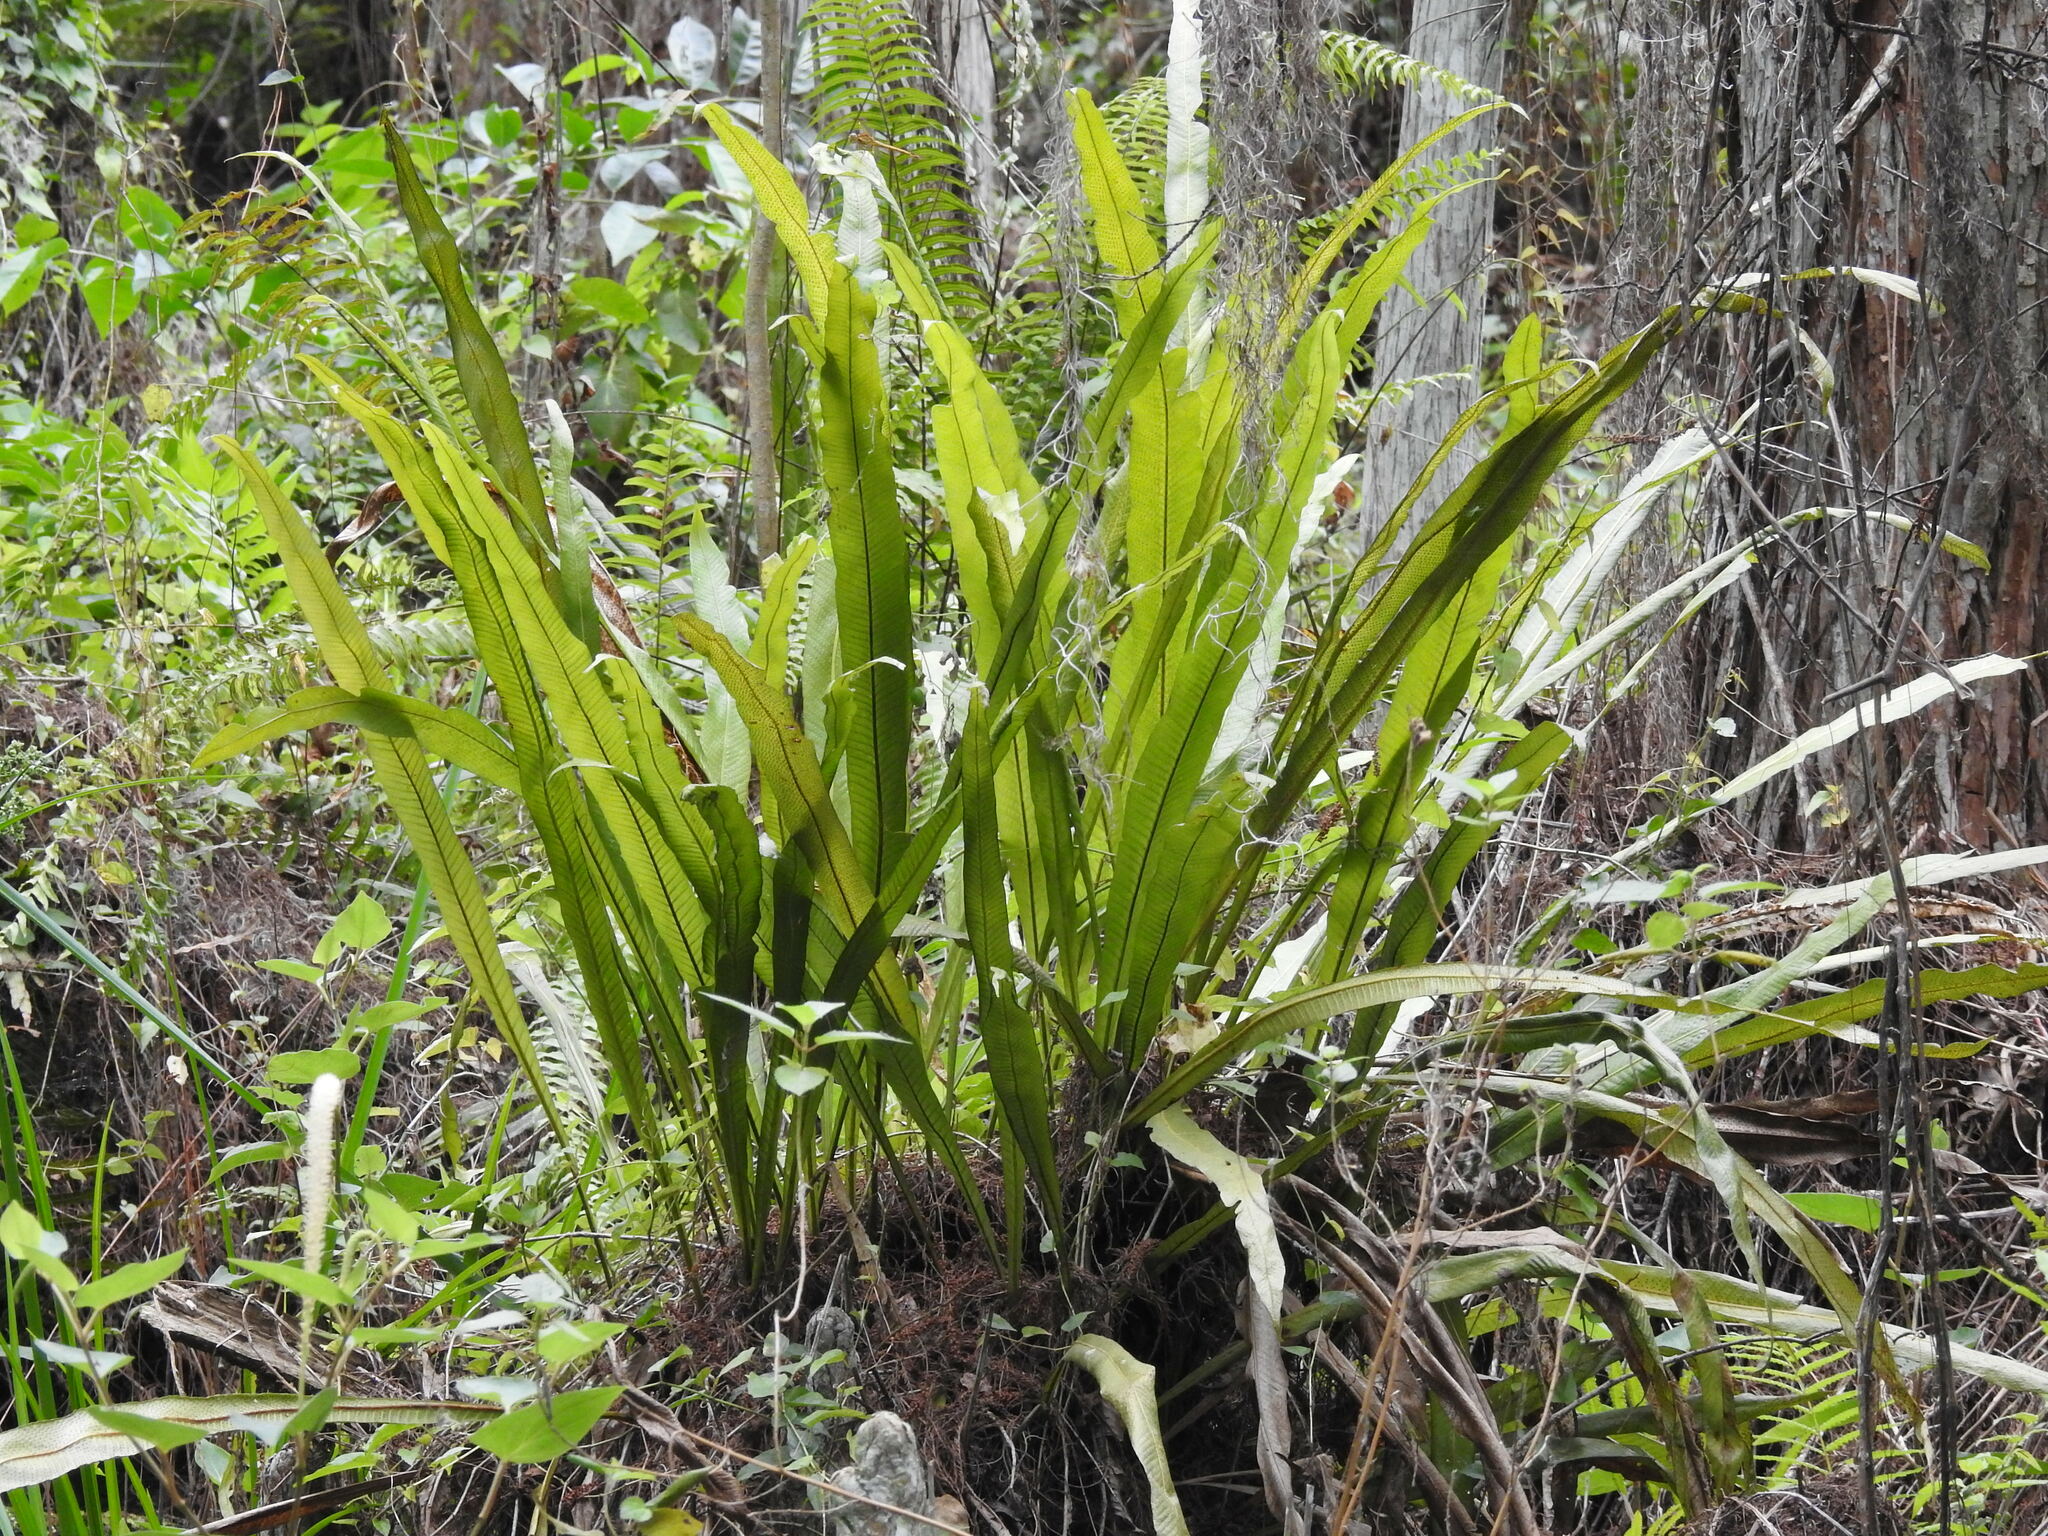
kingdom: Plantae
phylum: Tracheophyta
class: Polypodiopsida
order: Polypodiales
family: Polypodiaceae
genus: Campyloneurum
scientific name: Campyloneurum phyllitidis
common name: Cow-tongue fern
